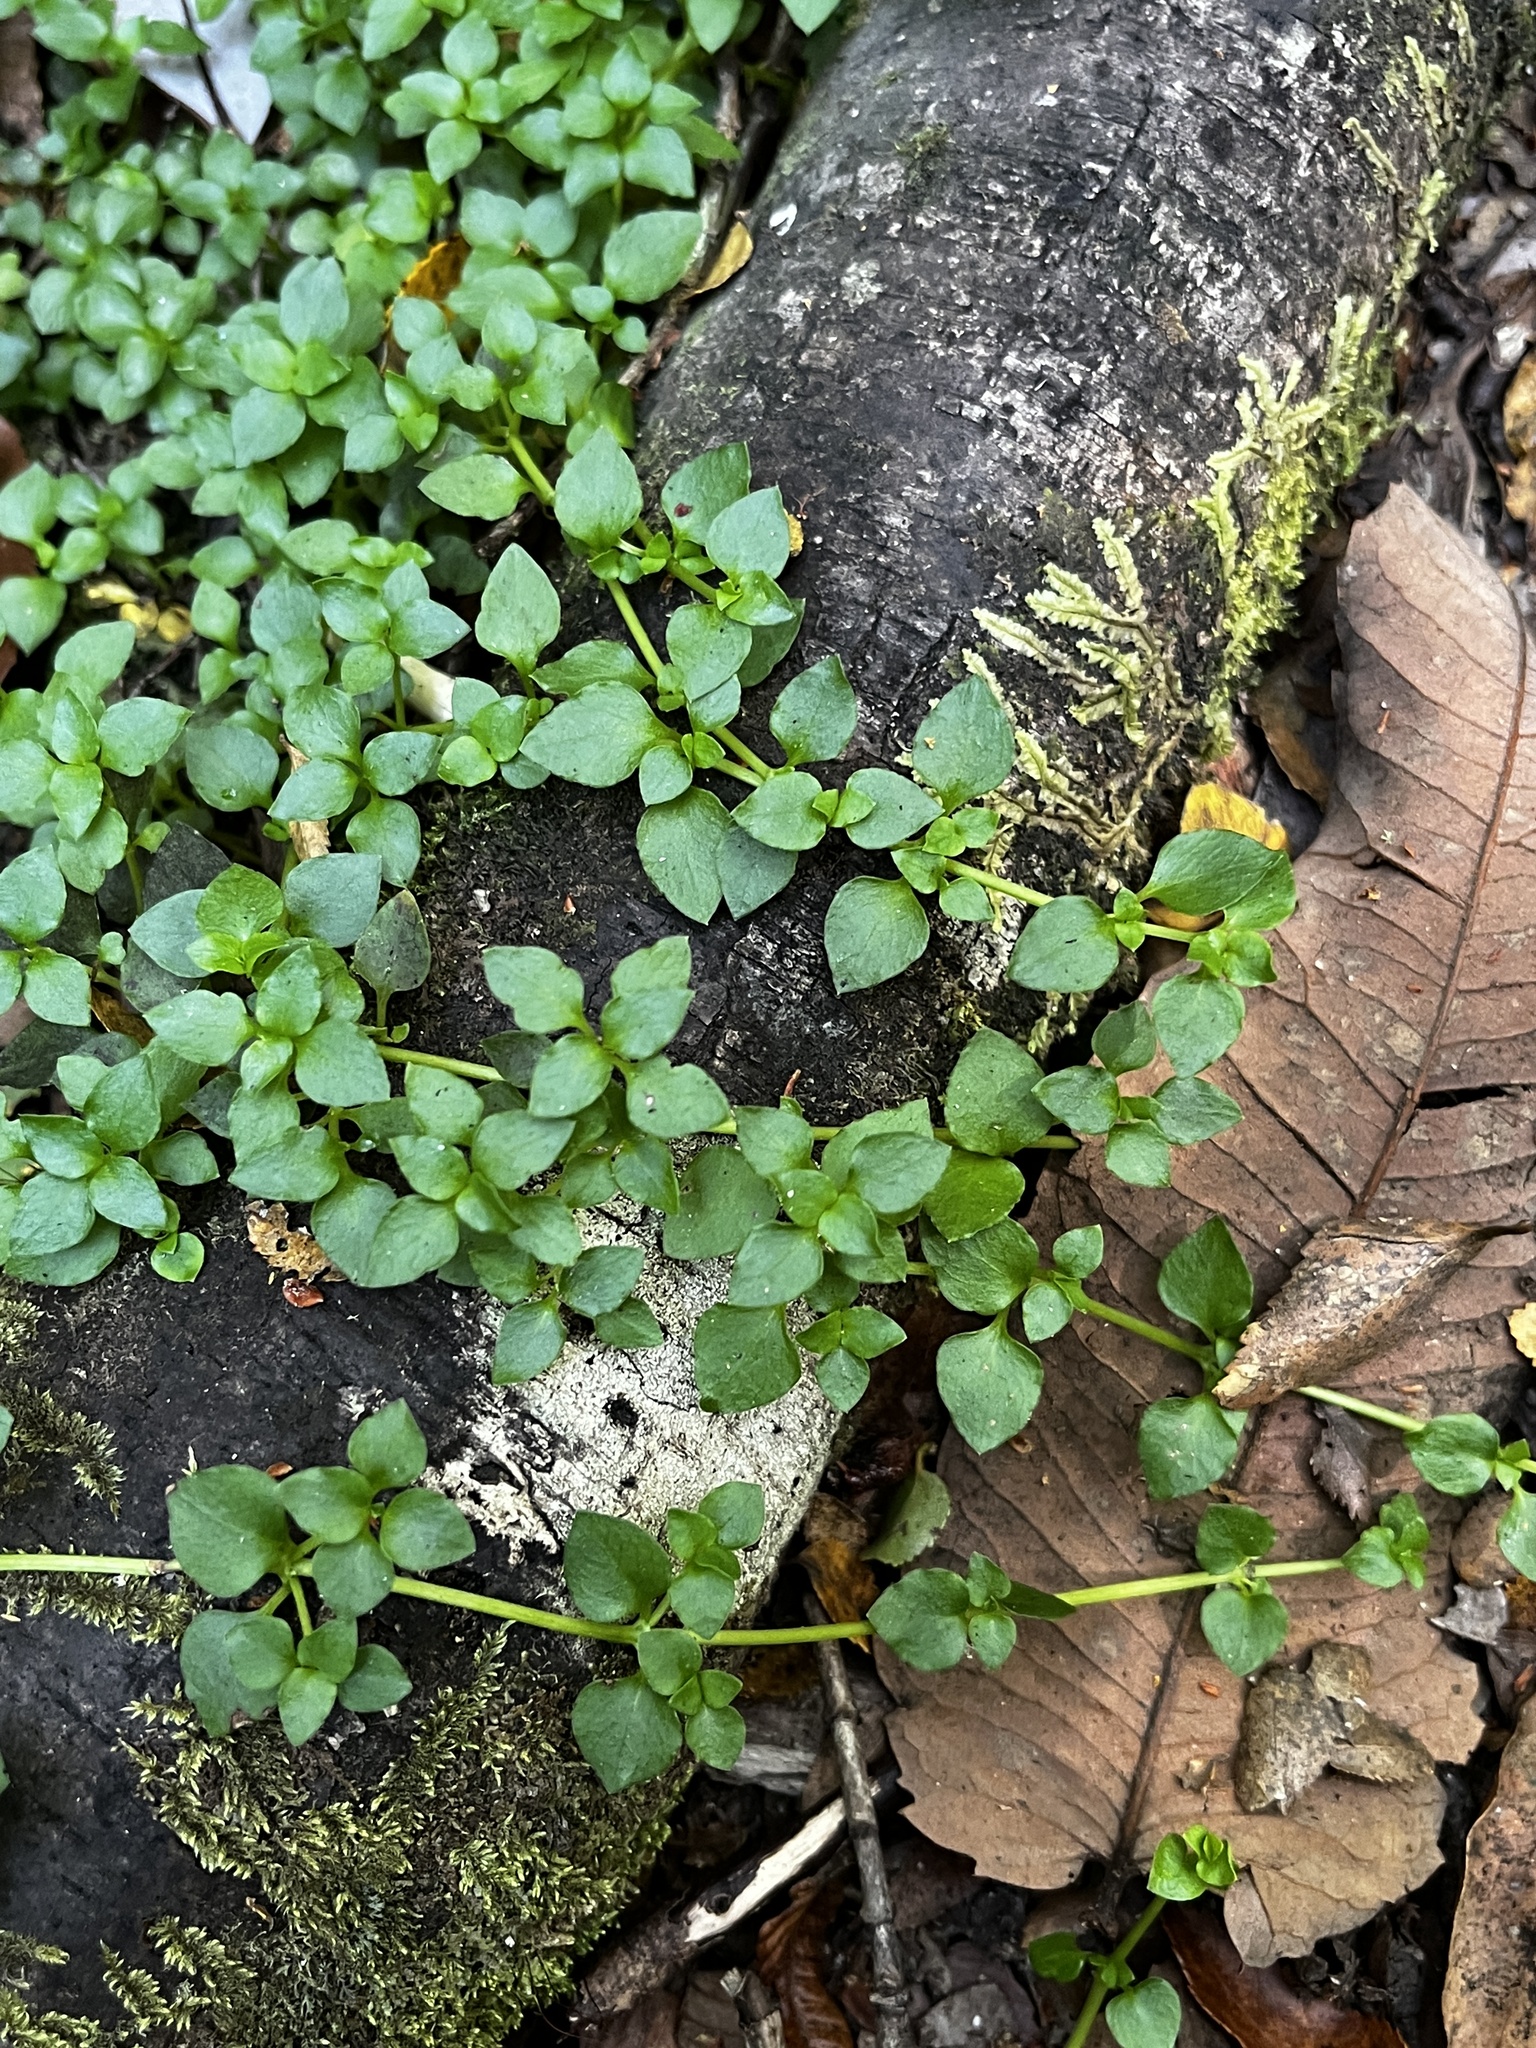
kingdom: Plantae
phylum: Tracheophyta
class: Magnoliopsida
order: Gentianales
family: Rubiaceae
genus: Nertera
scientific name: Nertera granadensis
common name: Beadplant
